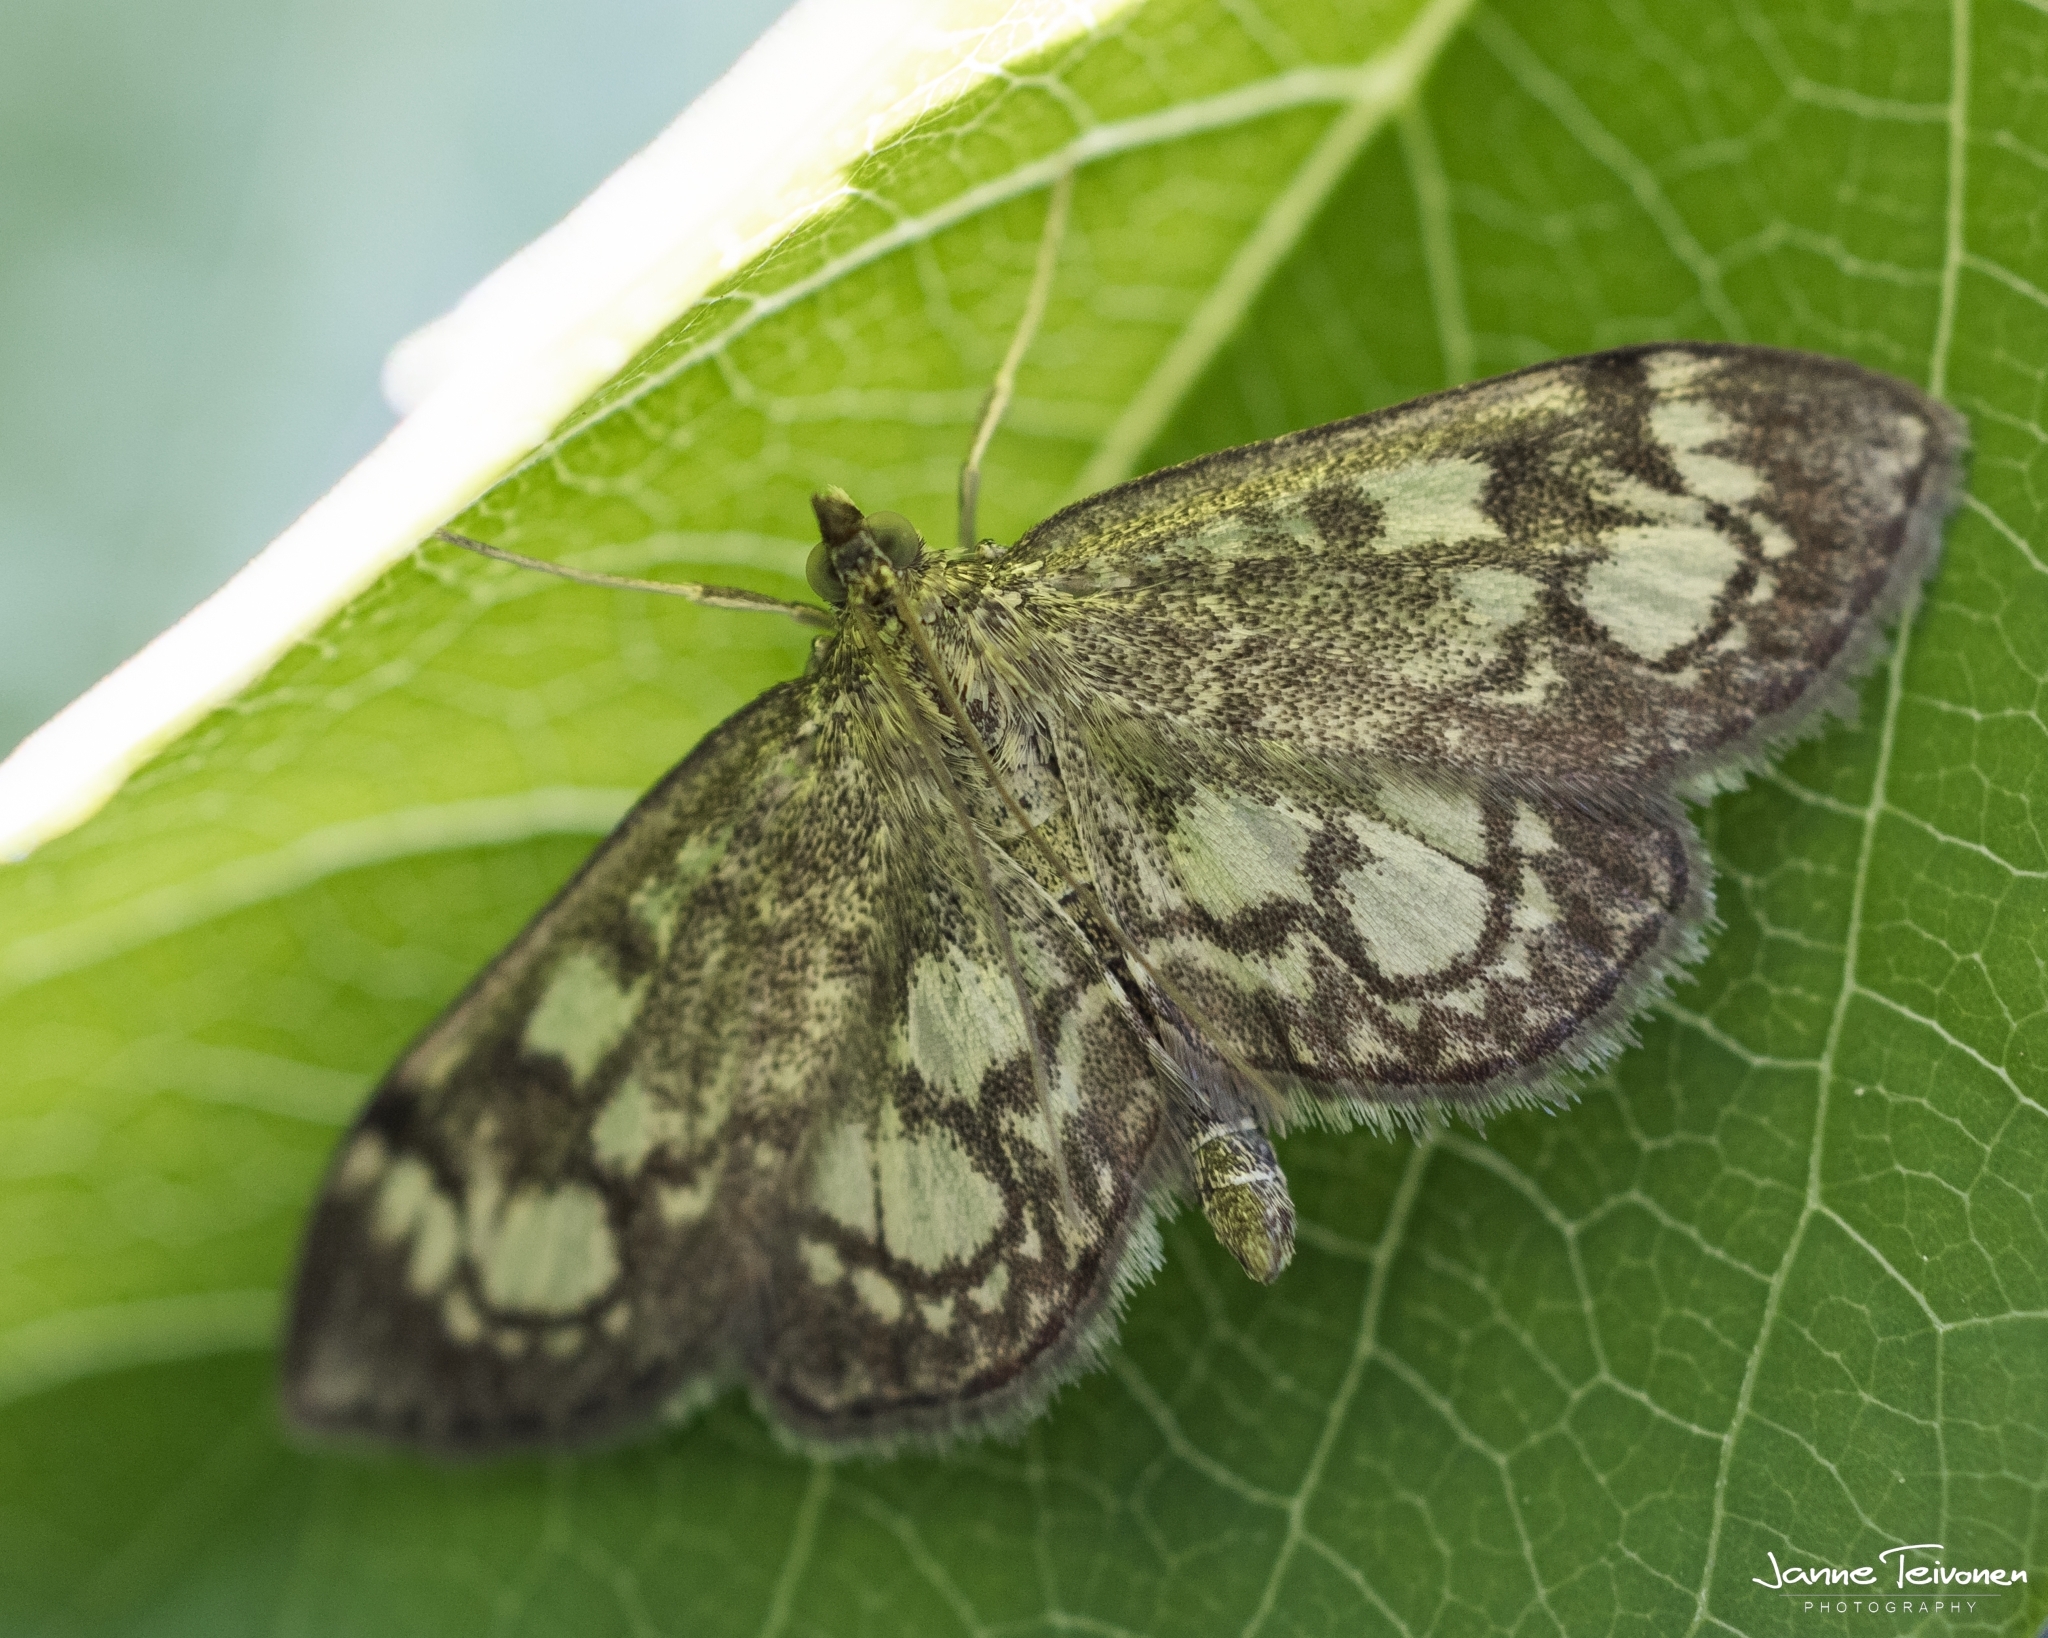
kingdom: Animalia
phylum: Arthropoda
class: Insecta
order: Lepidoptera
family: Crambidae
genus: Anania
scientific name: Anania coronata
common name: Elder pearl
